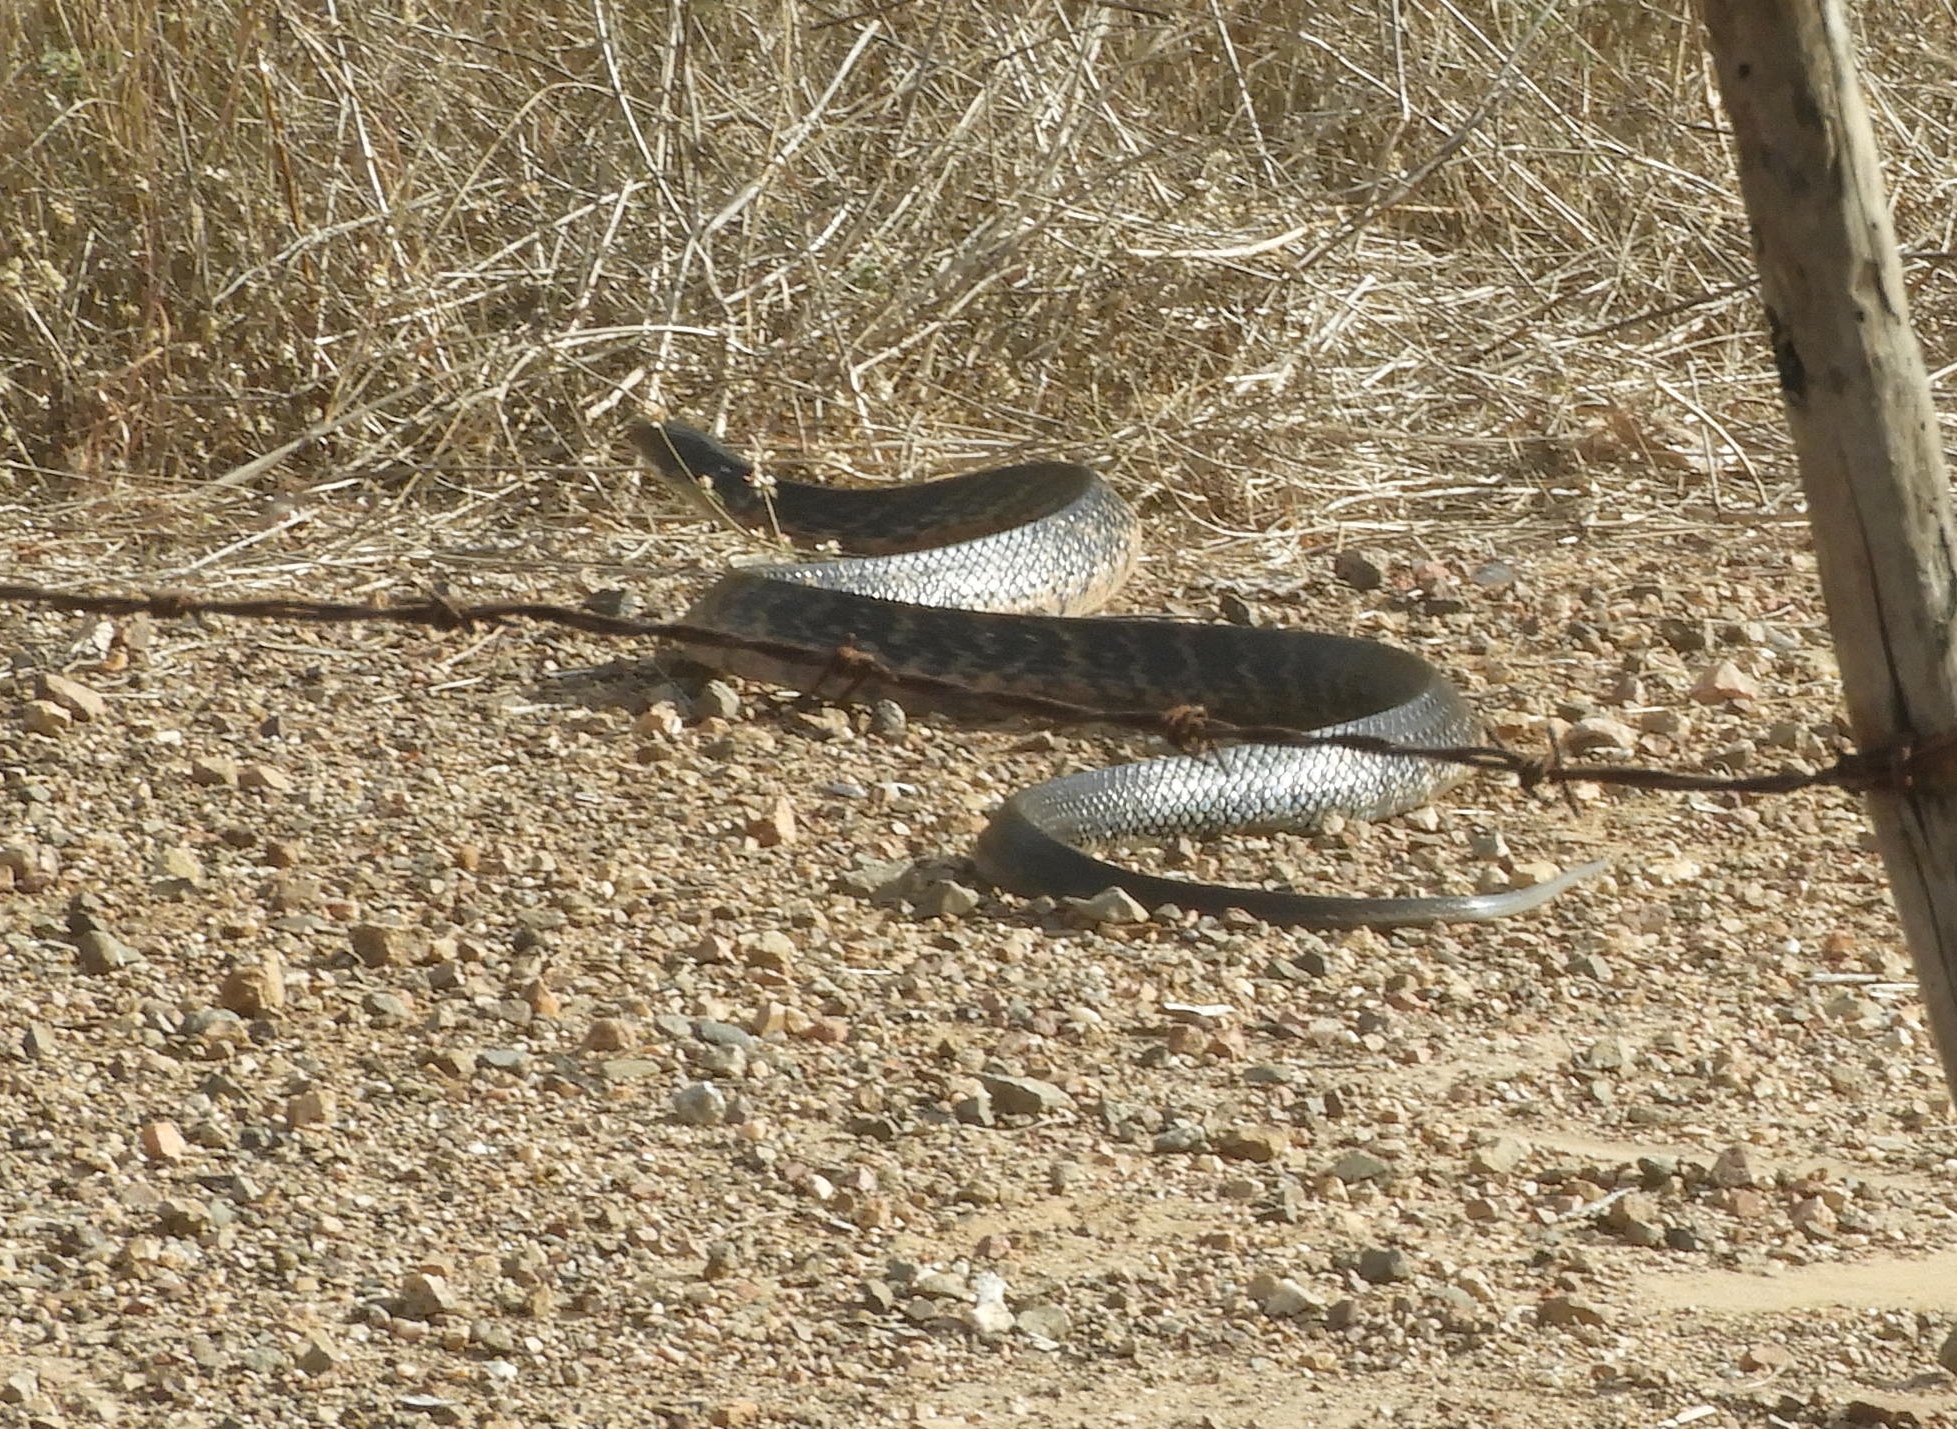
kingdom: Animalia
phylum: Chordata
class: Squamata
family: Colubridae
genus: Drymarchon
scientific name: Drymarchon melanurus
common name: Central american indigo snake
